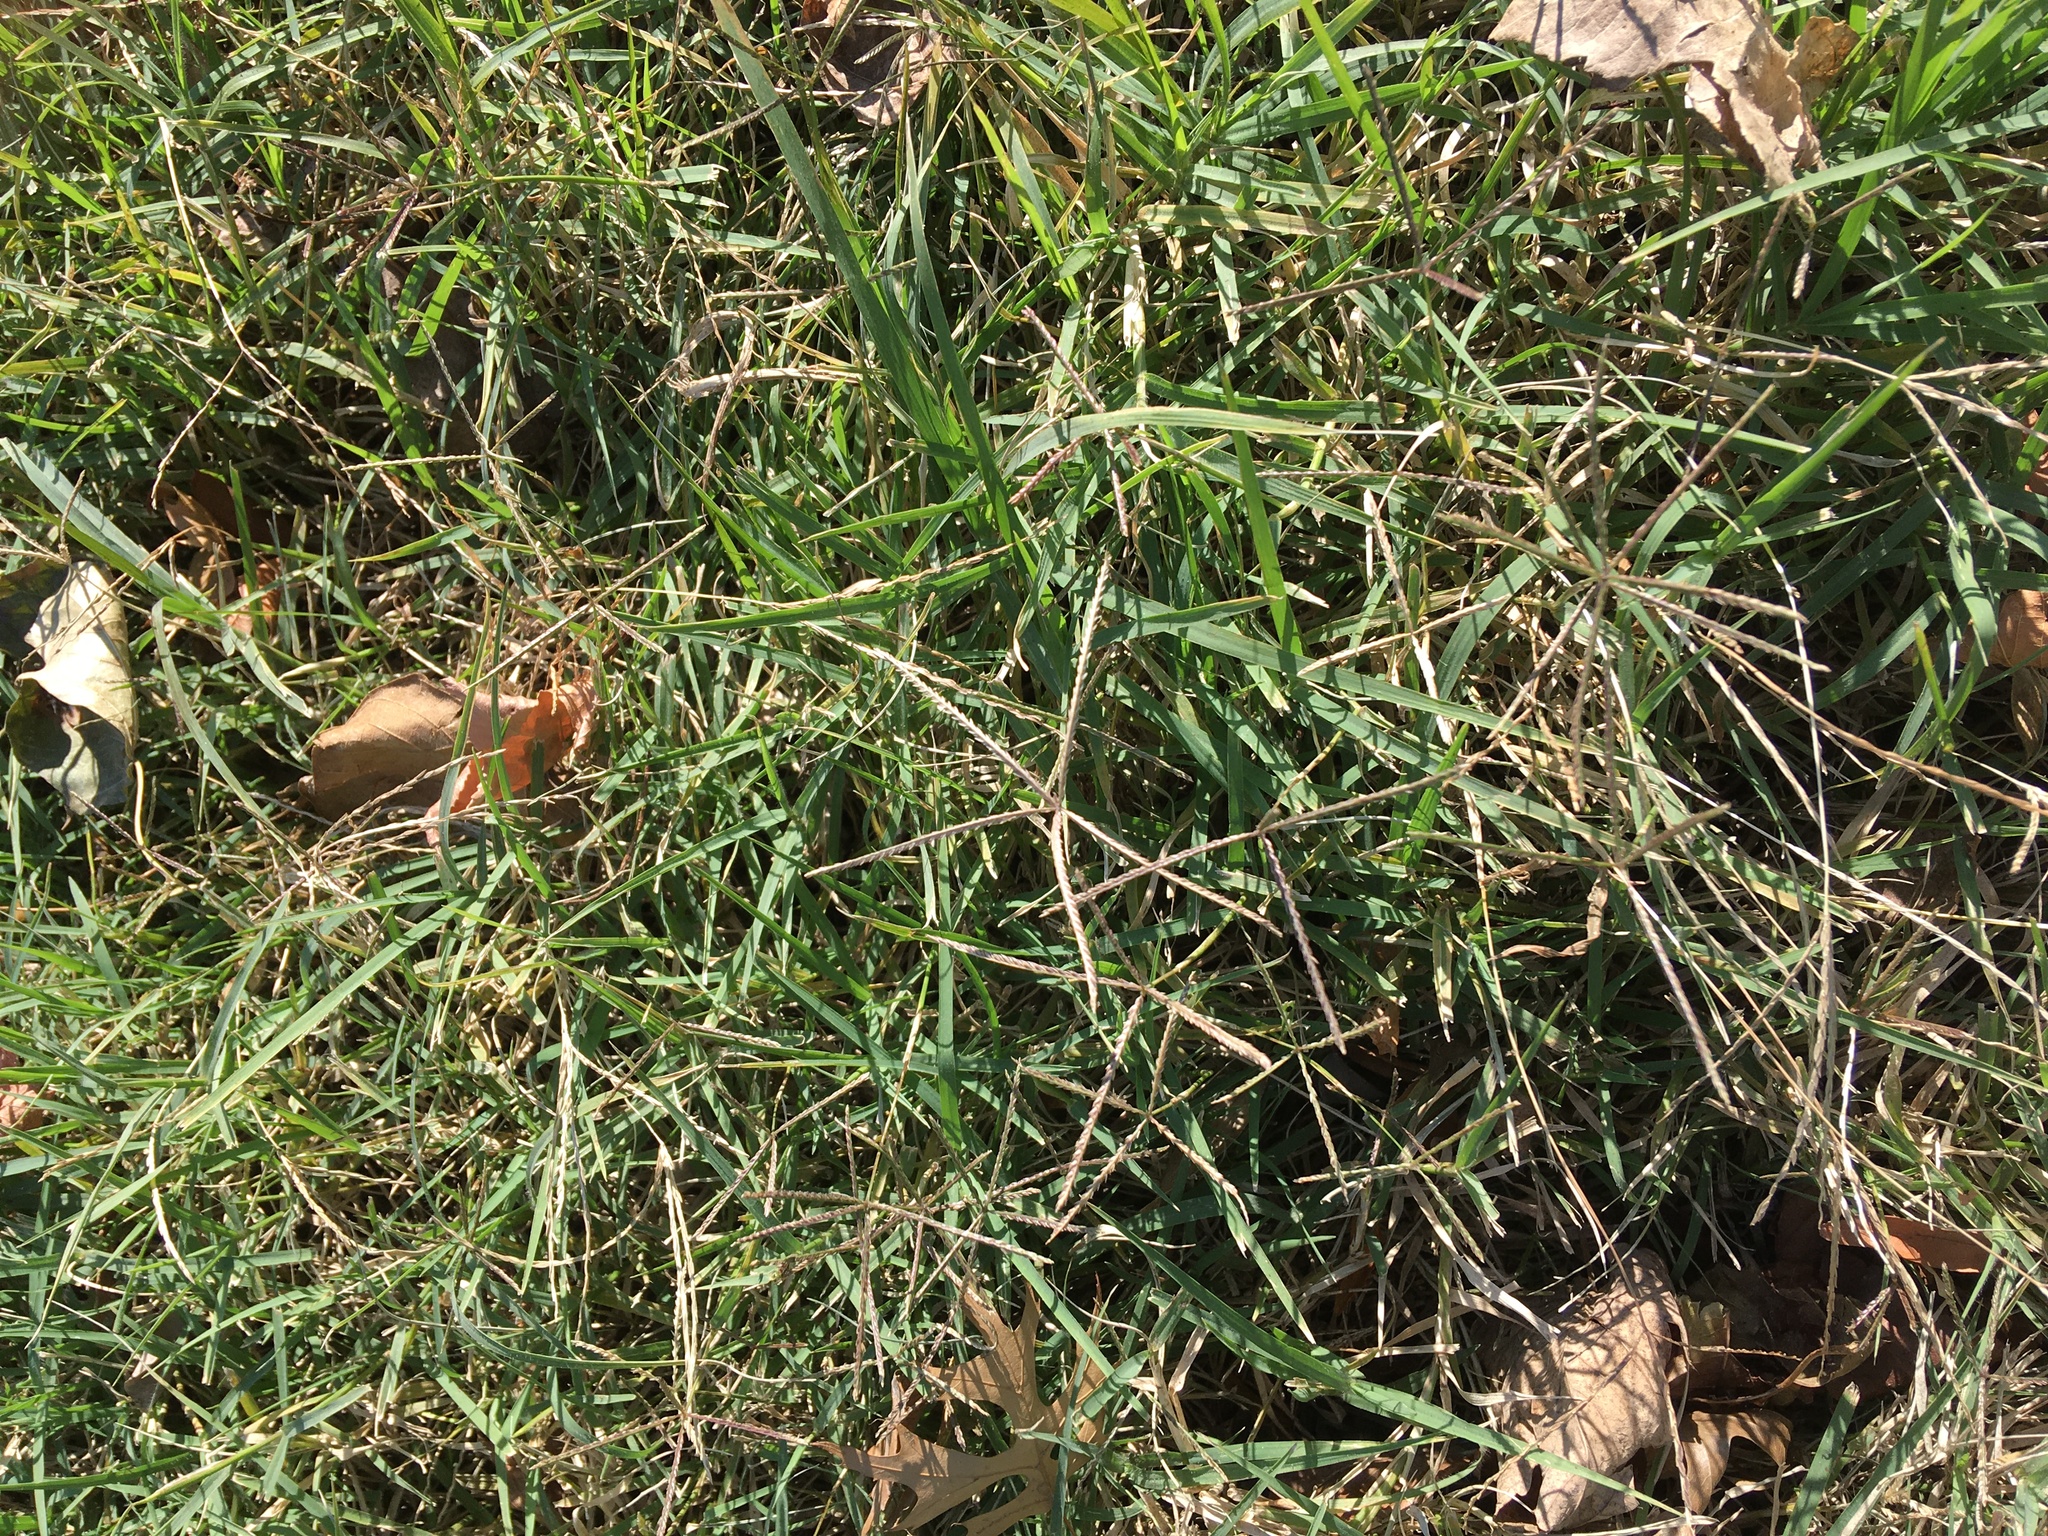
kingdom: Plantae
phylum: Tracheophyta
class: Liliopsida
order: Poales
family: Poaceae
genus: Cynodon
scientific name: Cynodon dactylon
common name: Bermuda grass
